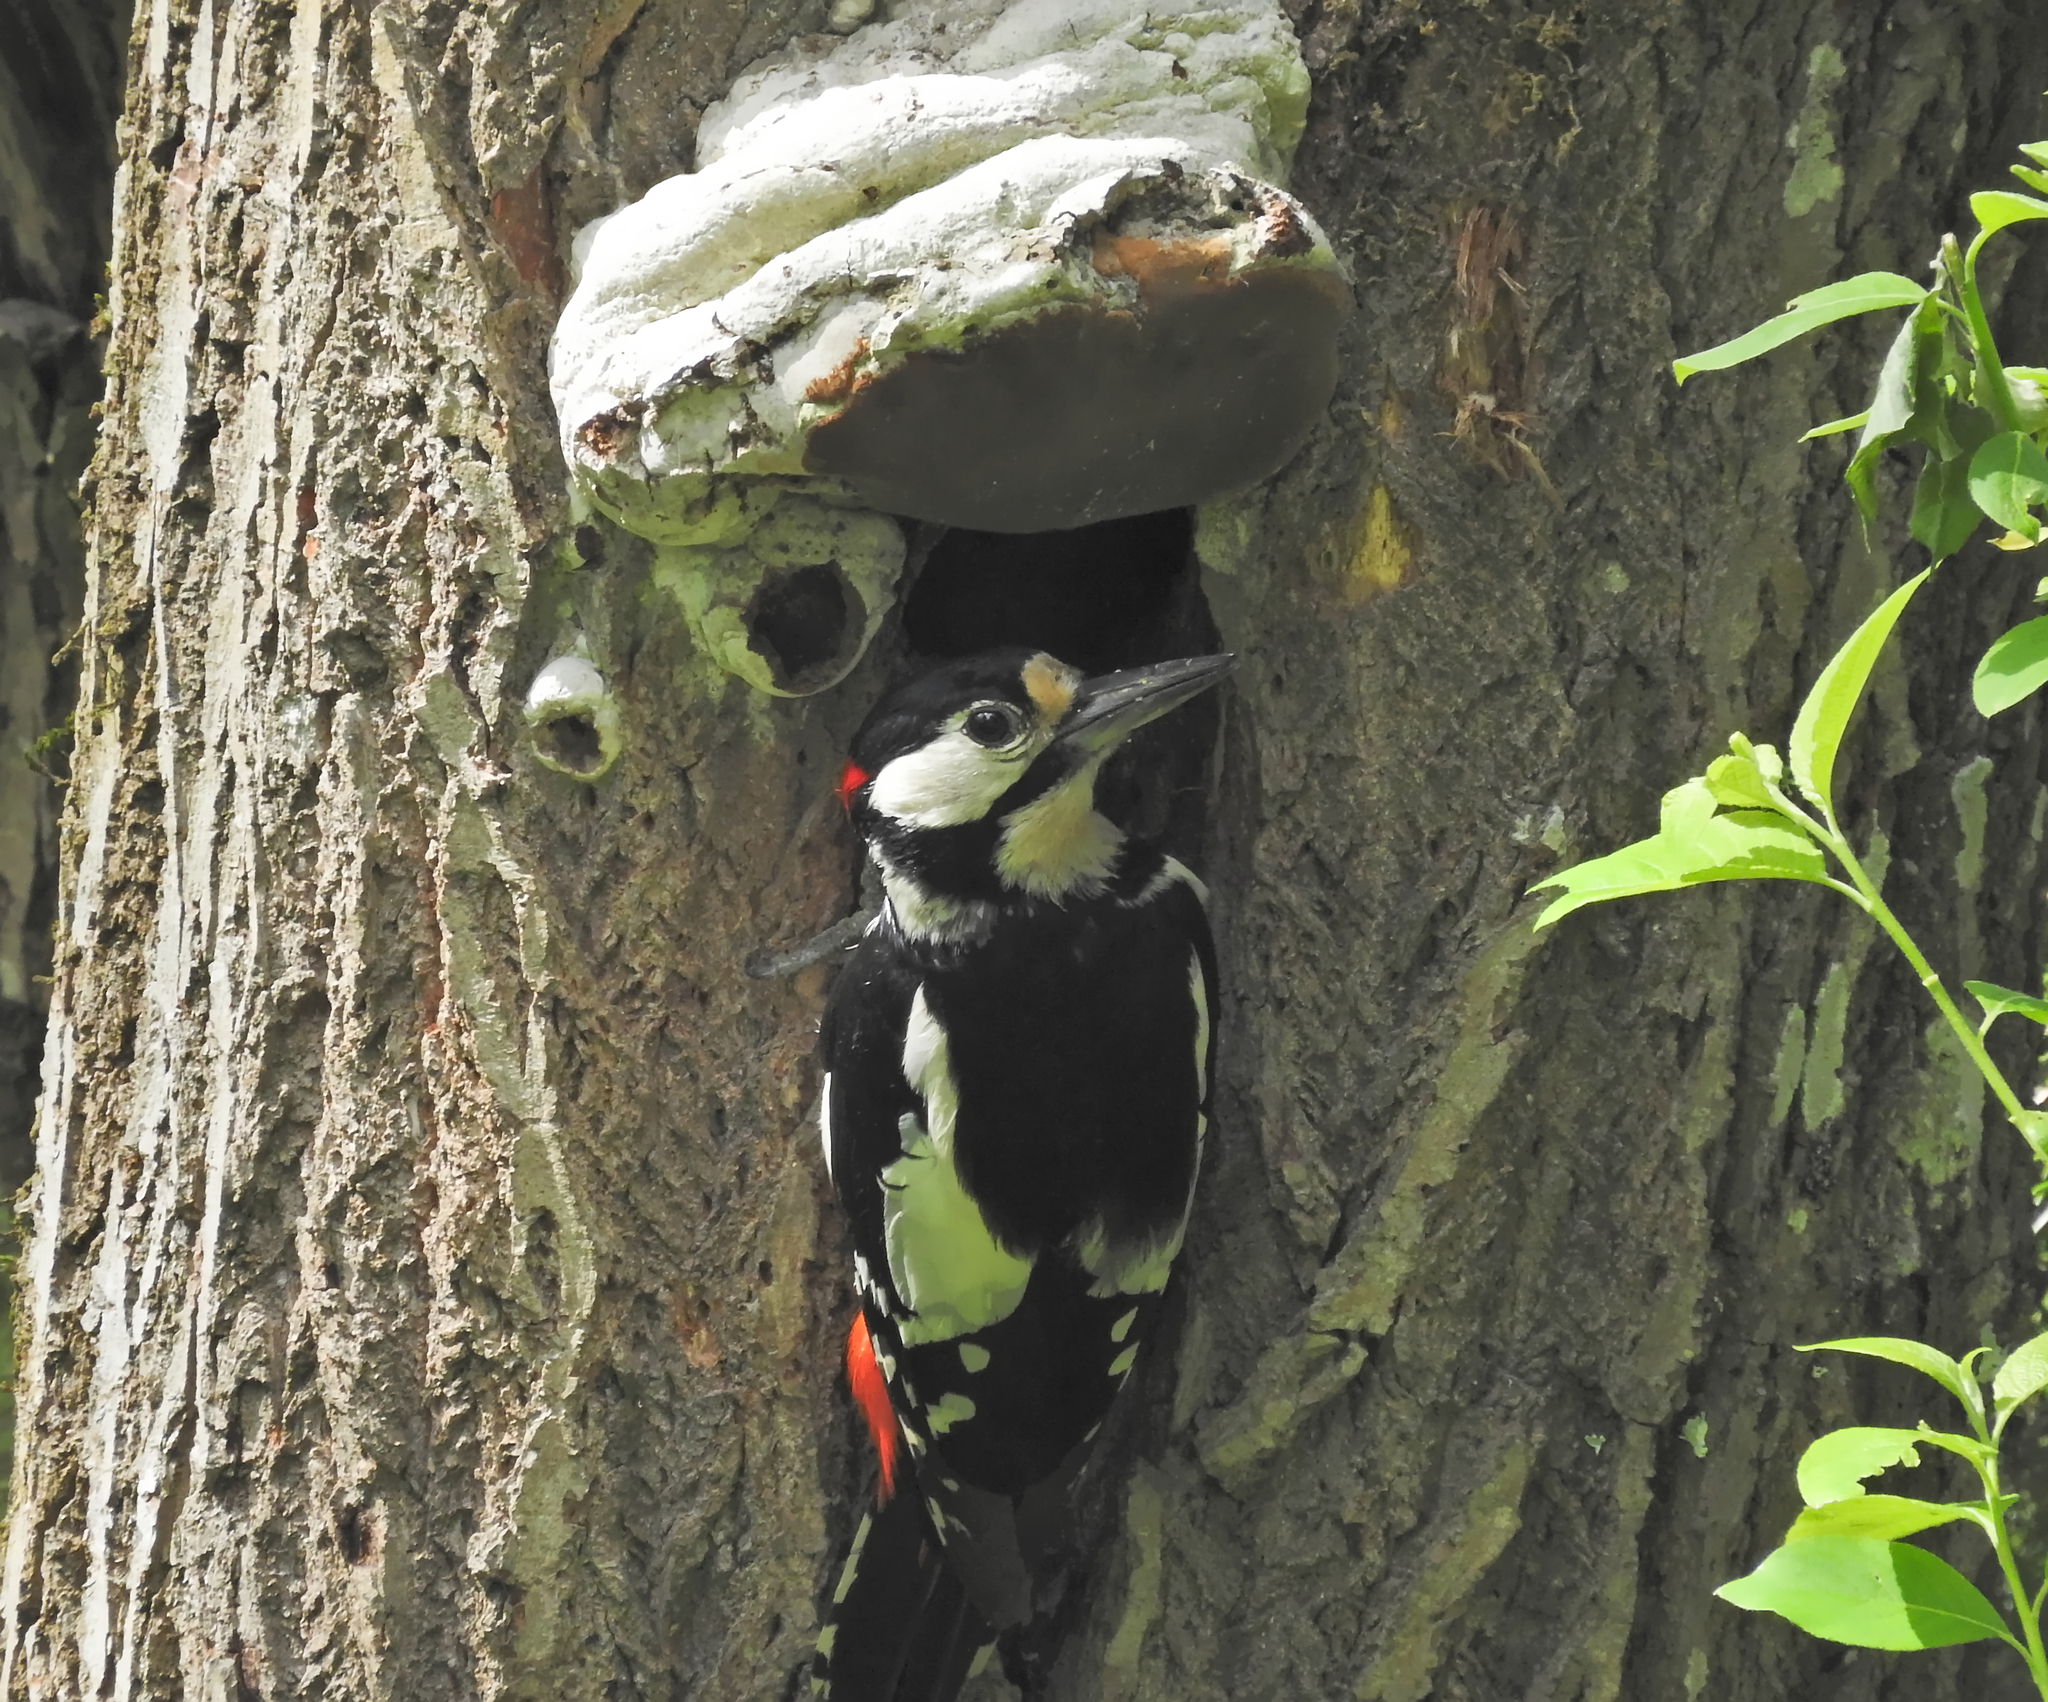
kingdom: Animalia
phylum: Chordata
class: Aves
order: Piciformes
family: Picidae
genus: Dendrocopos
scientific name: Dendrocopos major
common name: Great spotted woodpecker
